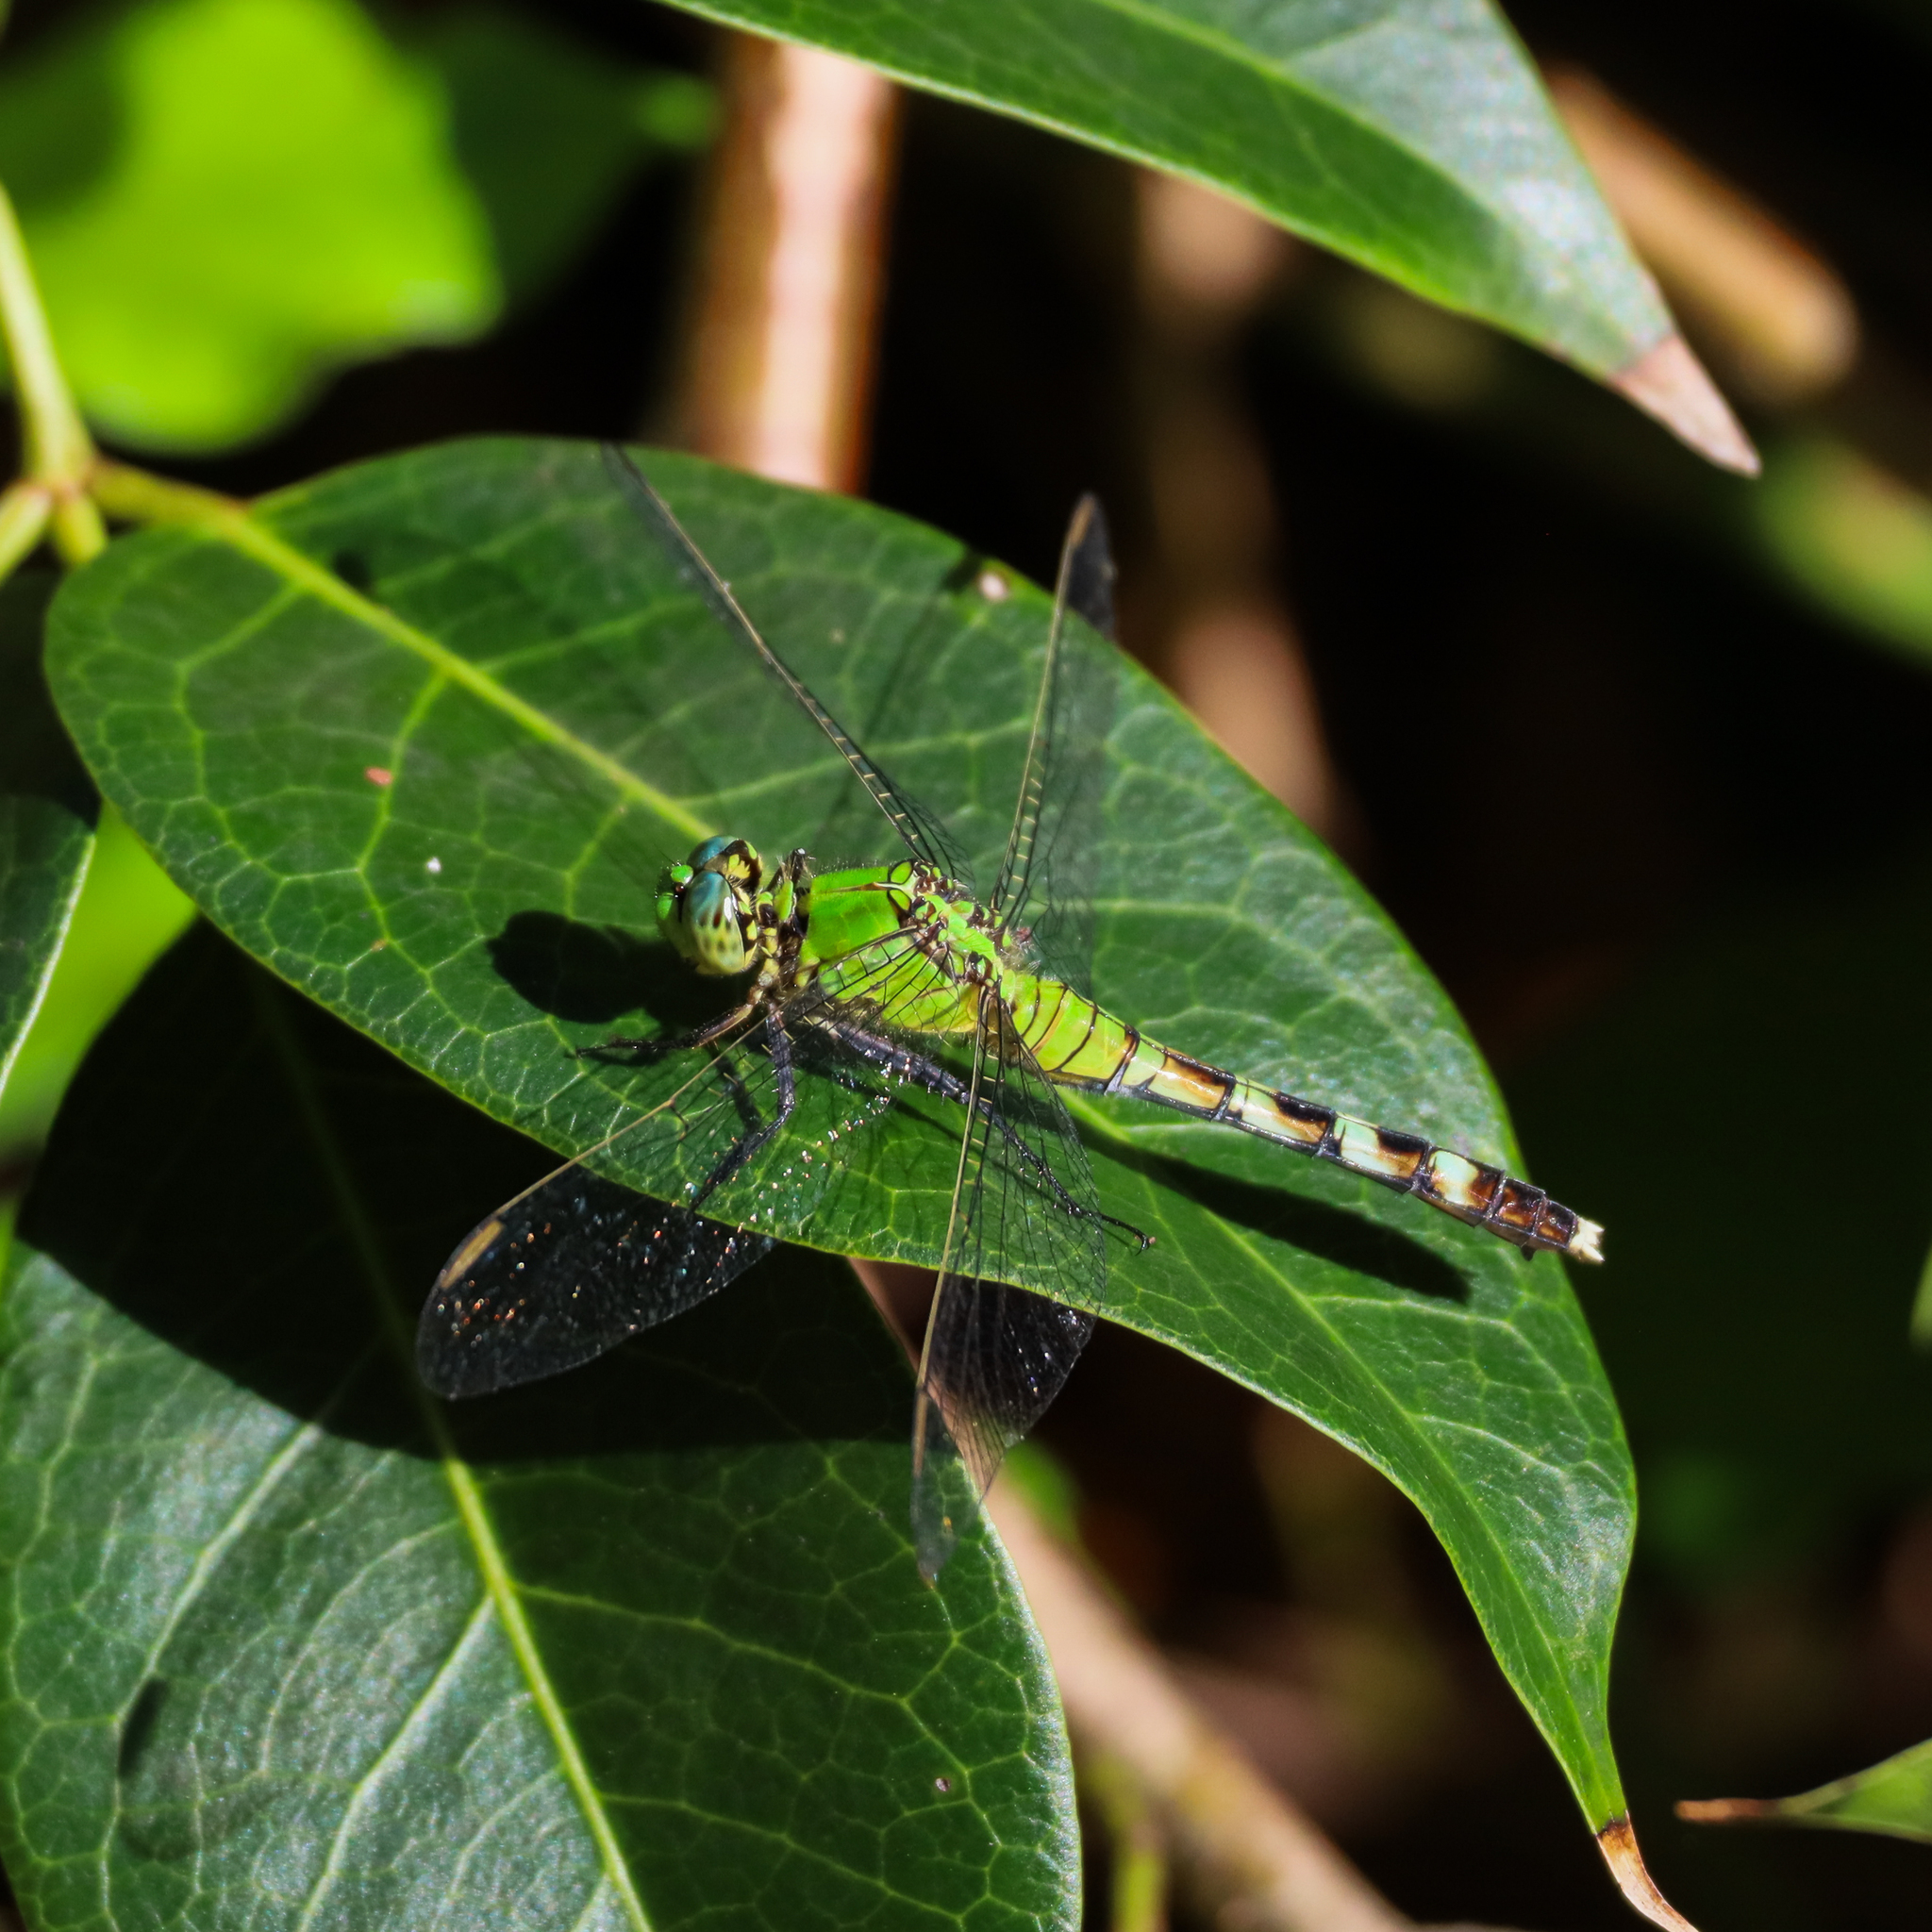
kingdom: Animalia
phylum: Arthropoda
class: Insecta
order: Odonata
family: Libellulidae
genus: Erythemis
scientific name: Erythemis simplicicollis
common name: Eastern pondhawk
